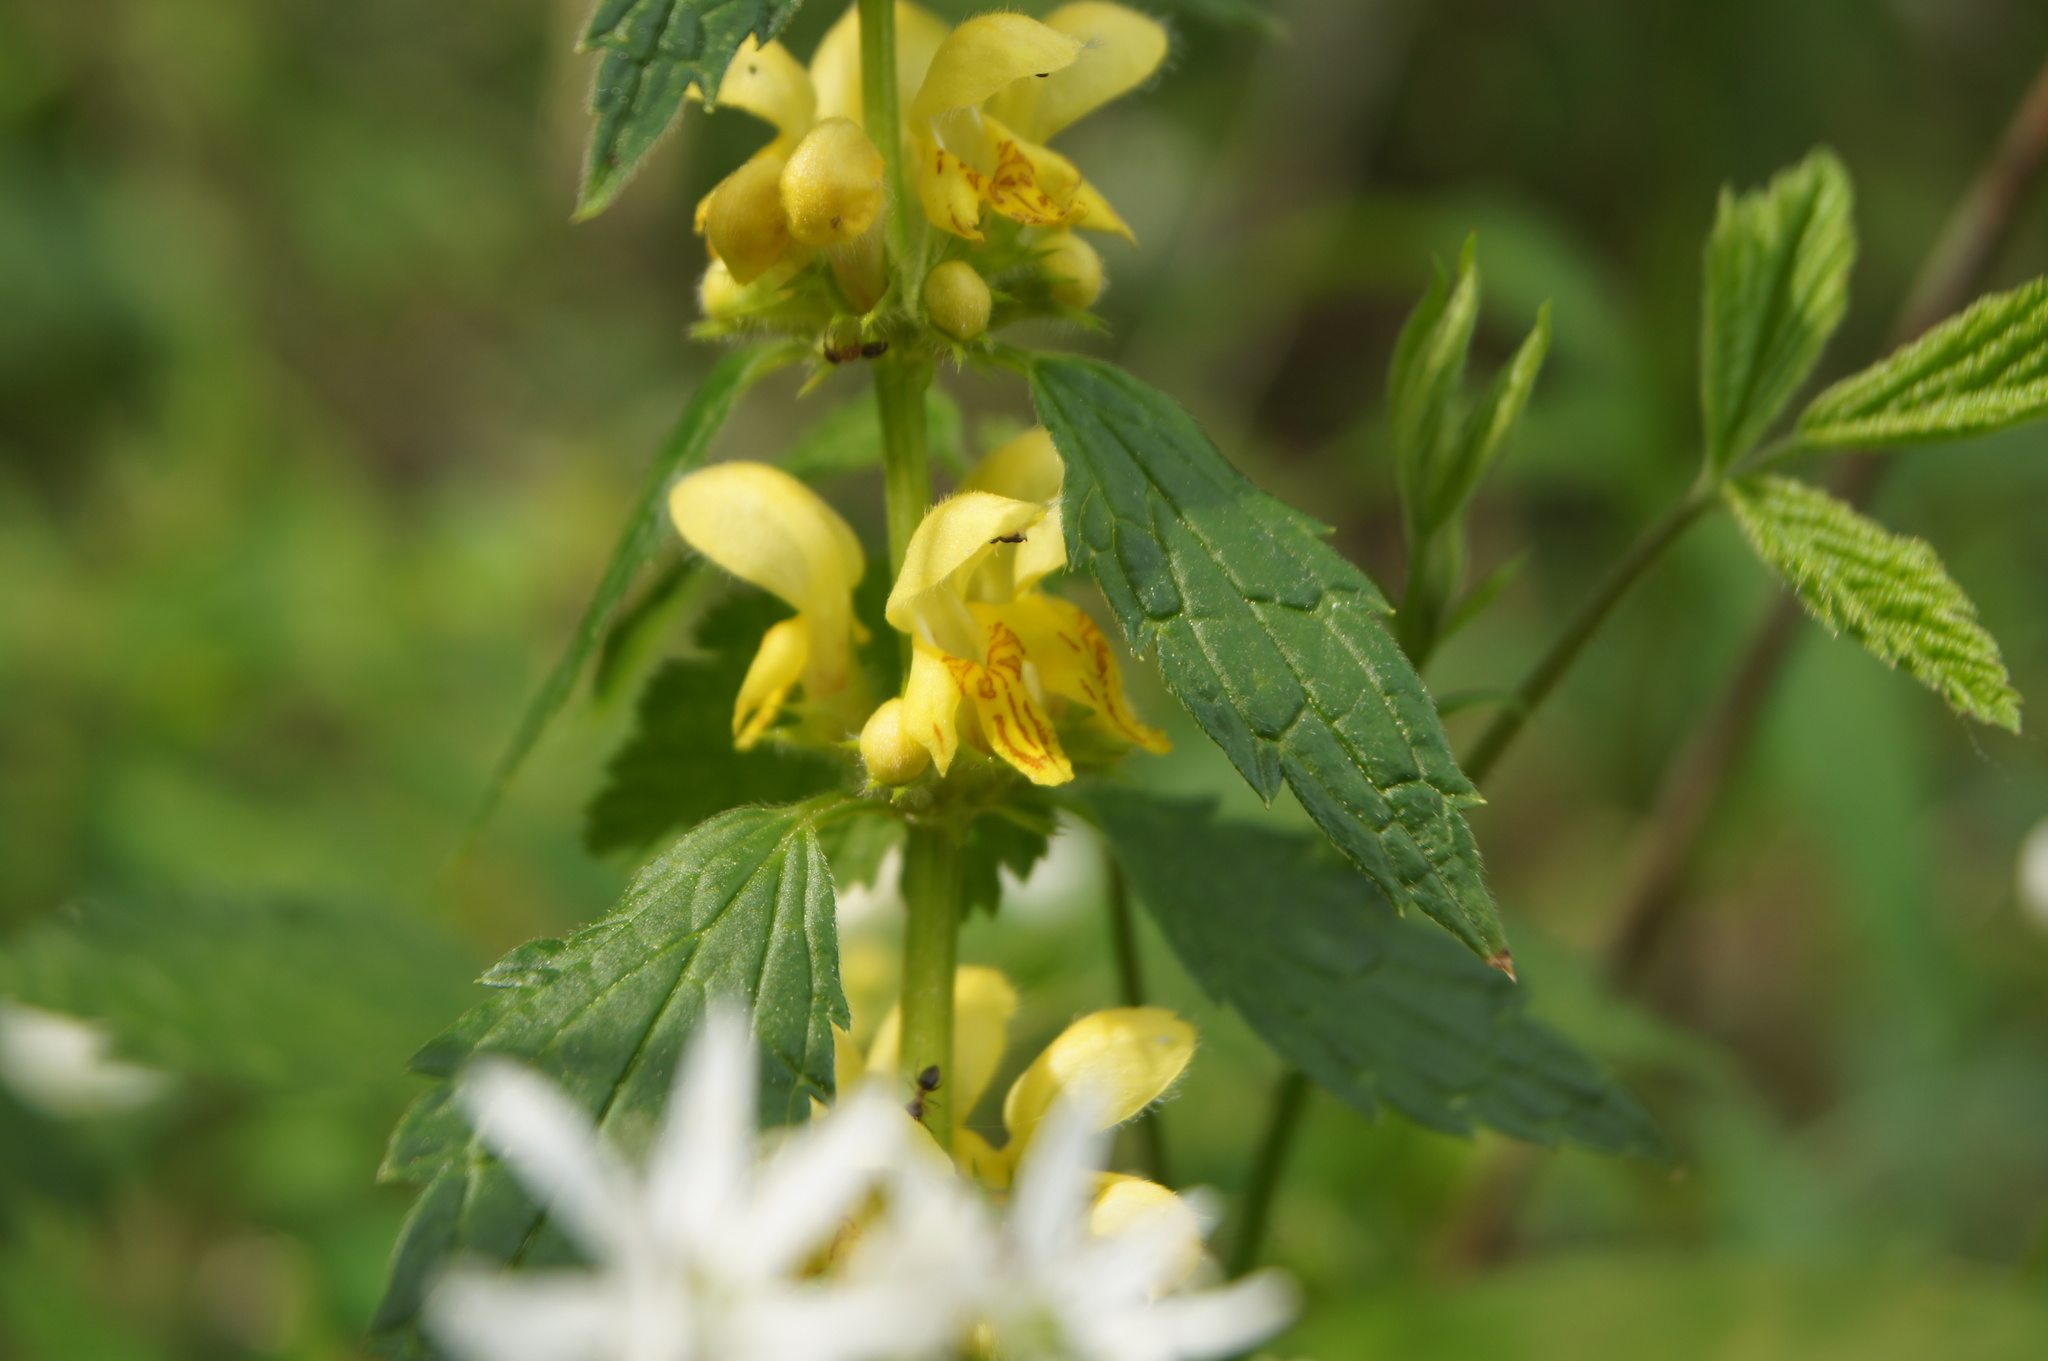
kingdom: Plantae
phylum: Tracheophyta
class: Magnoliopsida
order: Lamiales
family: Lamiaceae
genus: Lamium
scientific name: Lamium galeobdolon
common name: Yellow archangel
